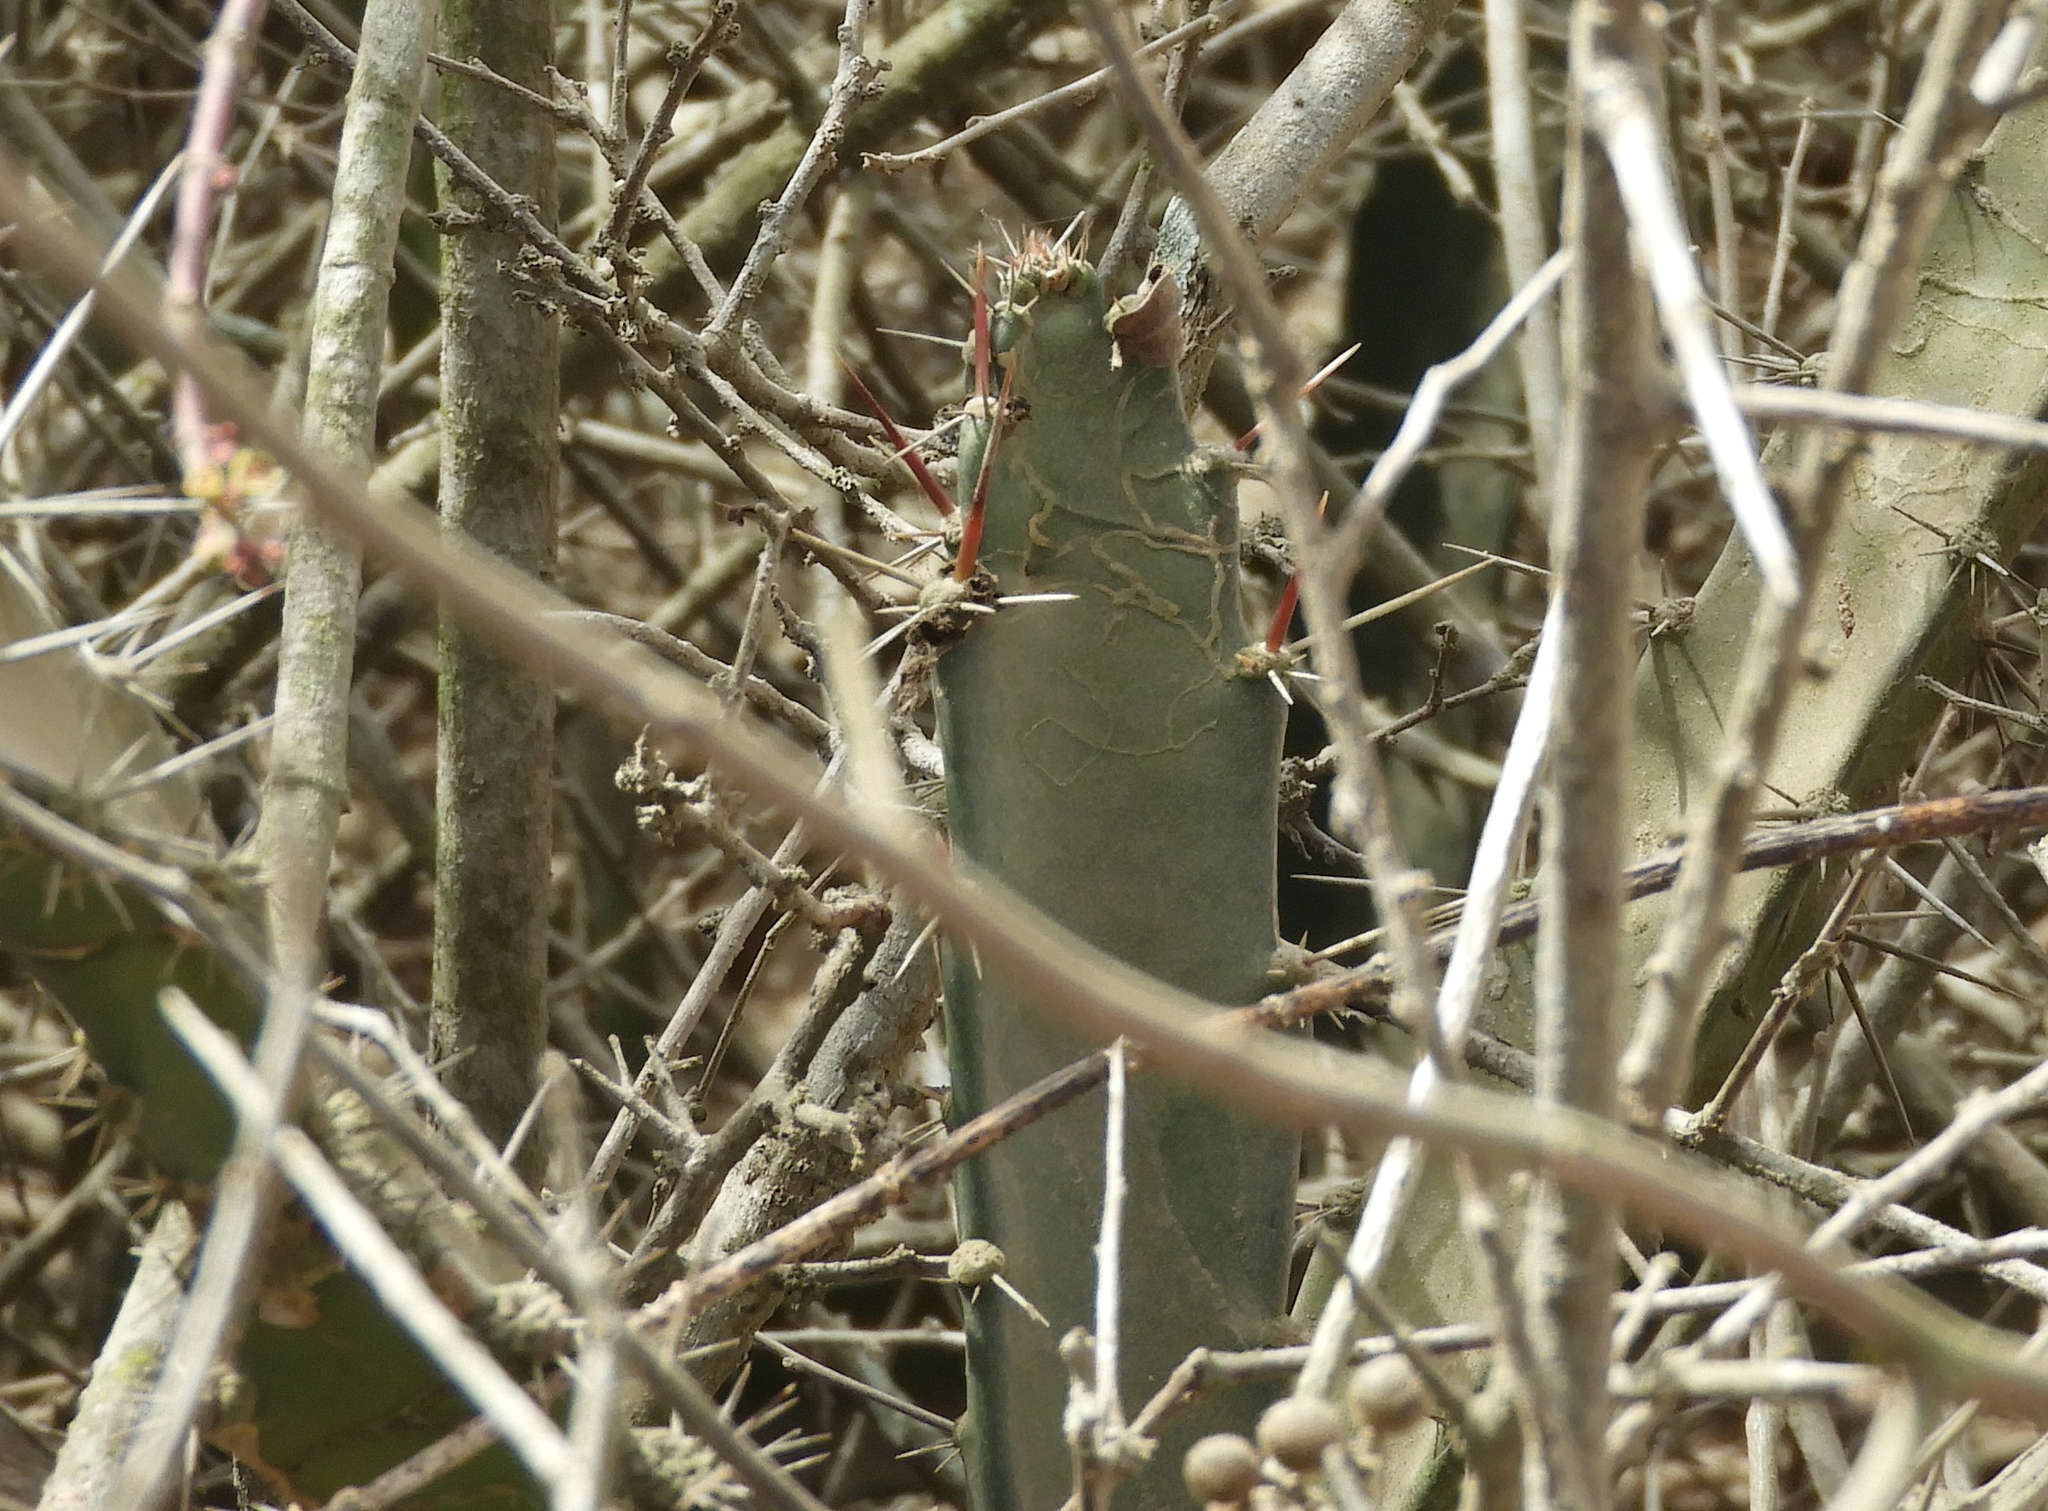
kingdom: Plantae
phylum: Tracheophyta
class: Magnoliopsida
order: Caryophyllales
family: Cactaceae
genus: Acanthocereus
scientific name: Acanthocereus tetragonus
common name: Triangle cactus
